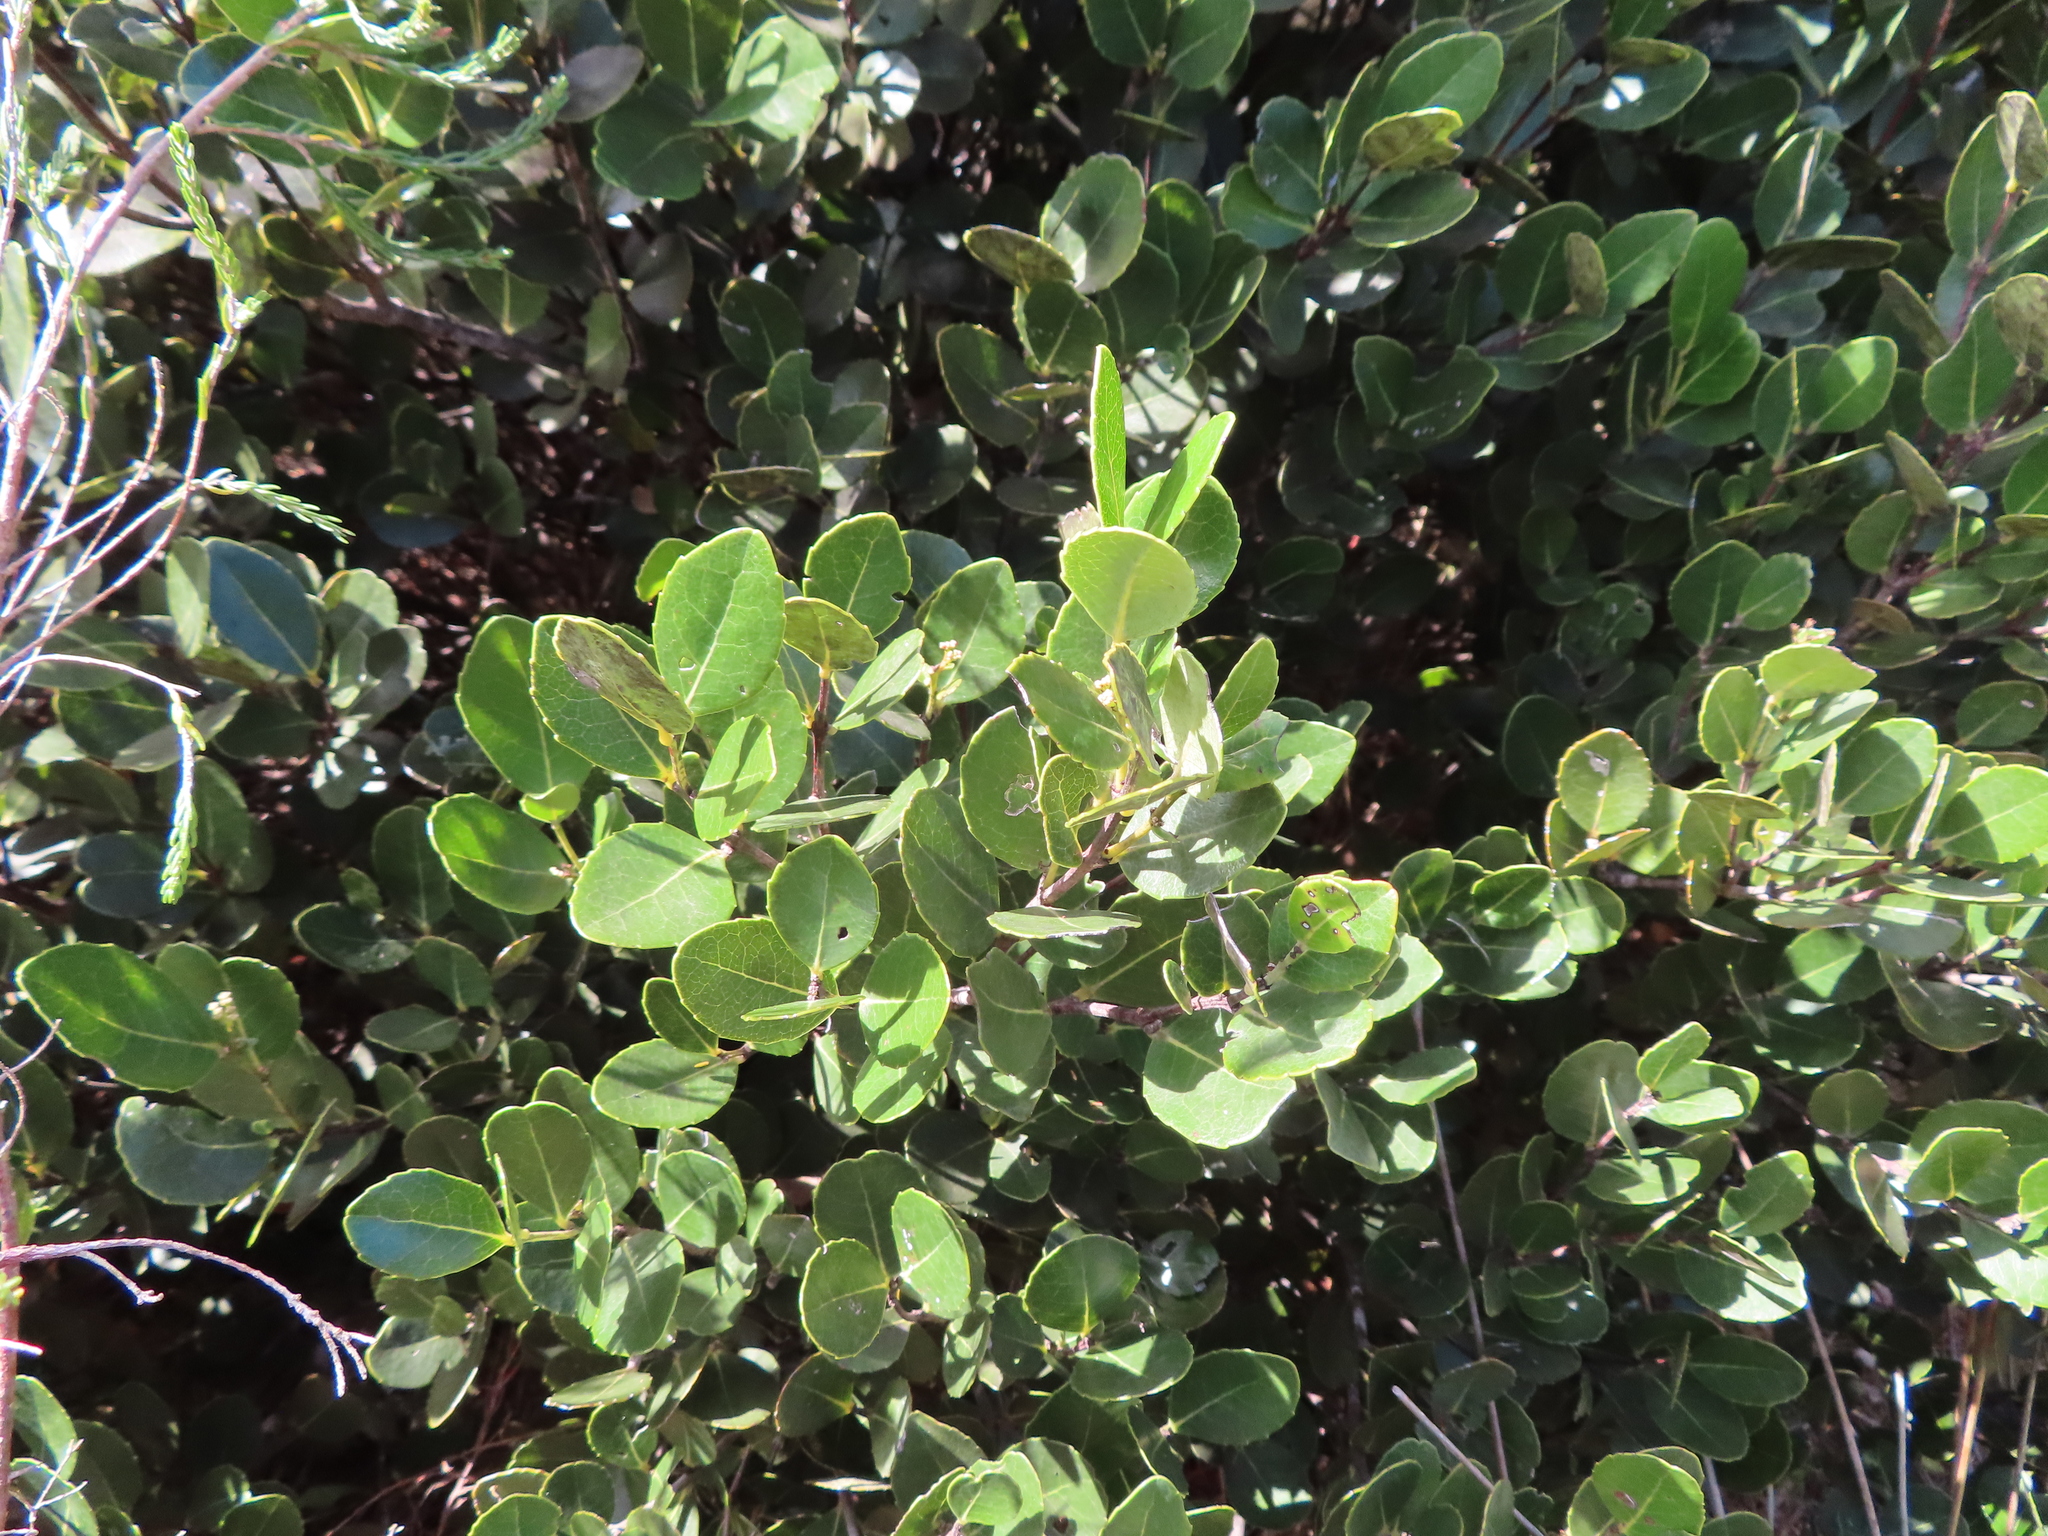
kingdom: Plantae
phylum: Tracheophyta
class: Magnoliopsida
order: Celastrales
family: Celastraceae
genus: Cassine
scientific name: Cassine peragua
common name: Cape saffron
